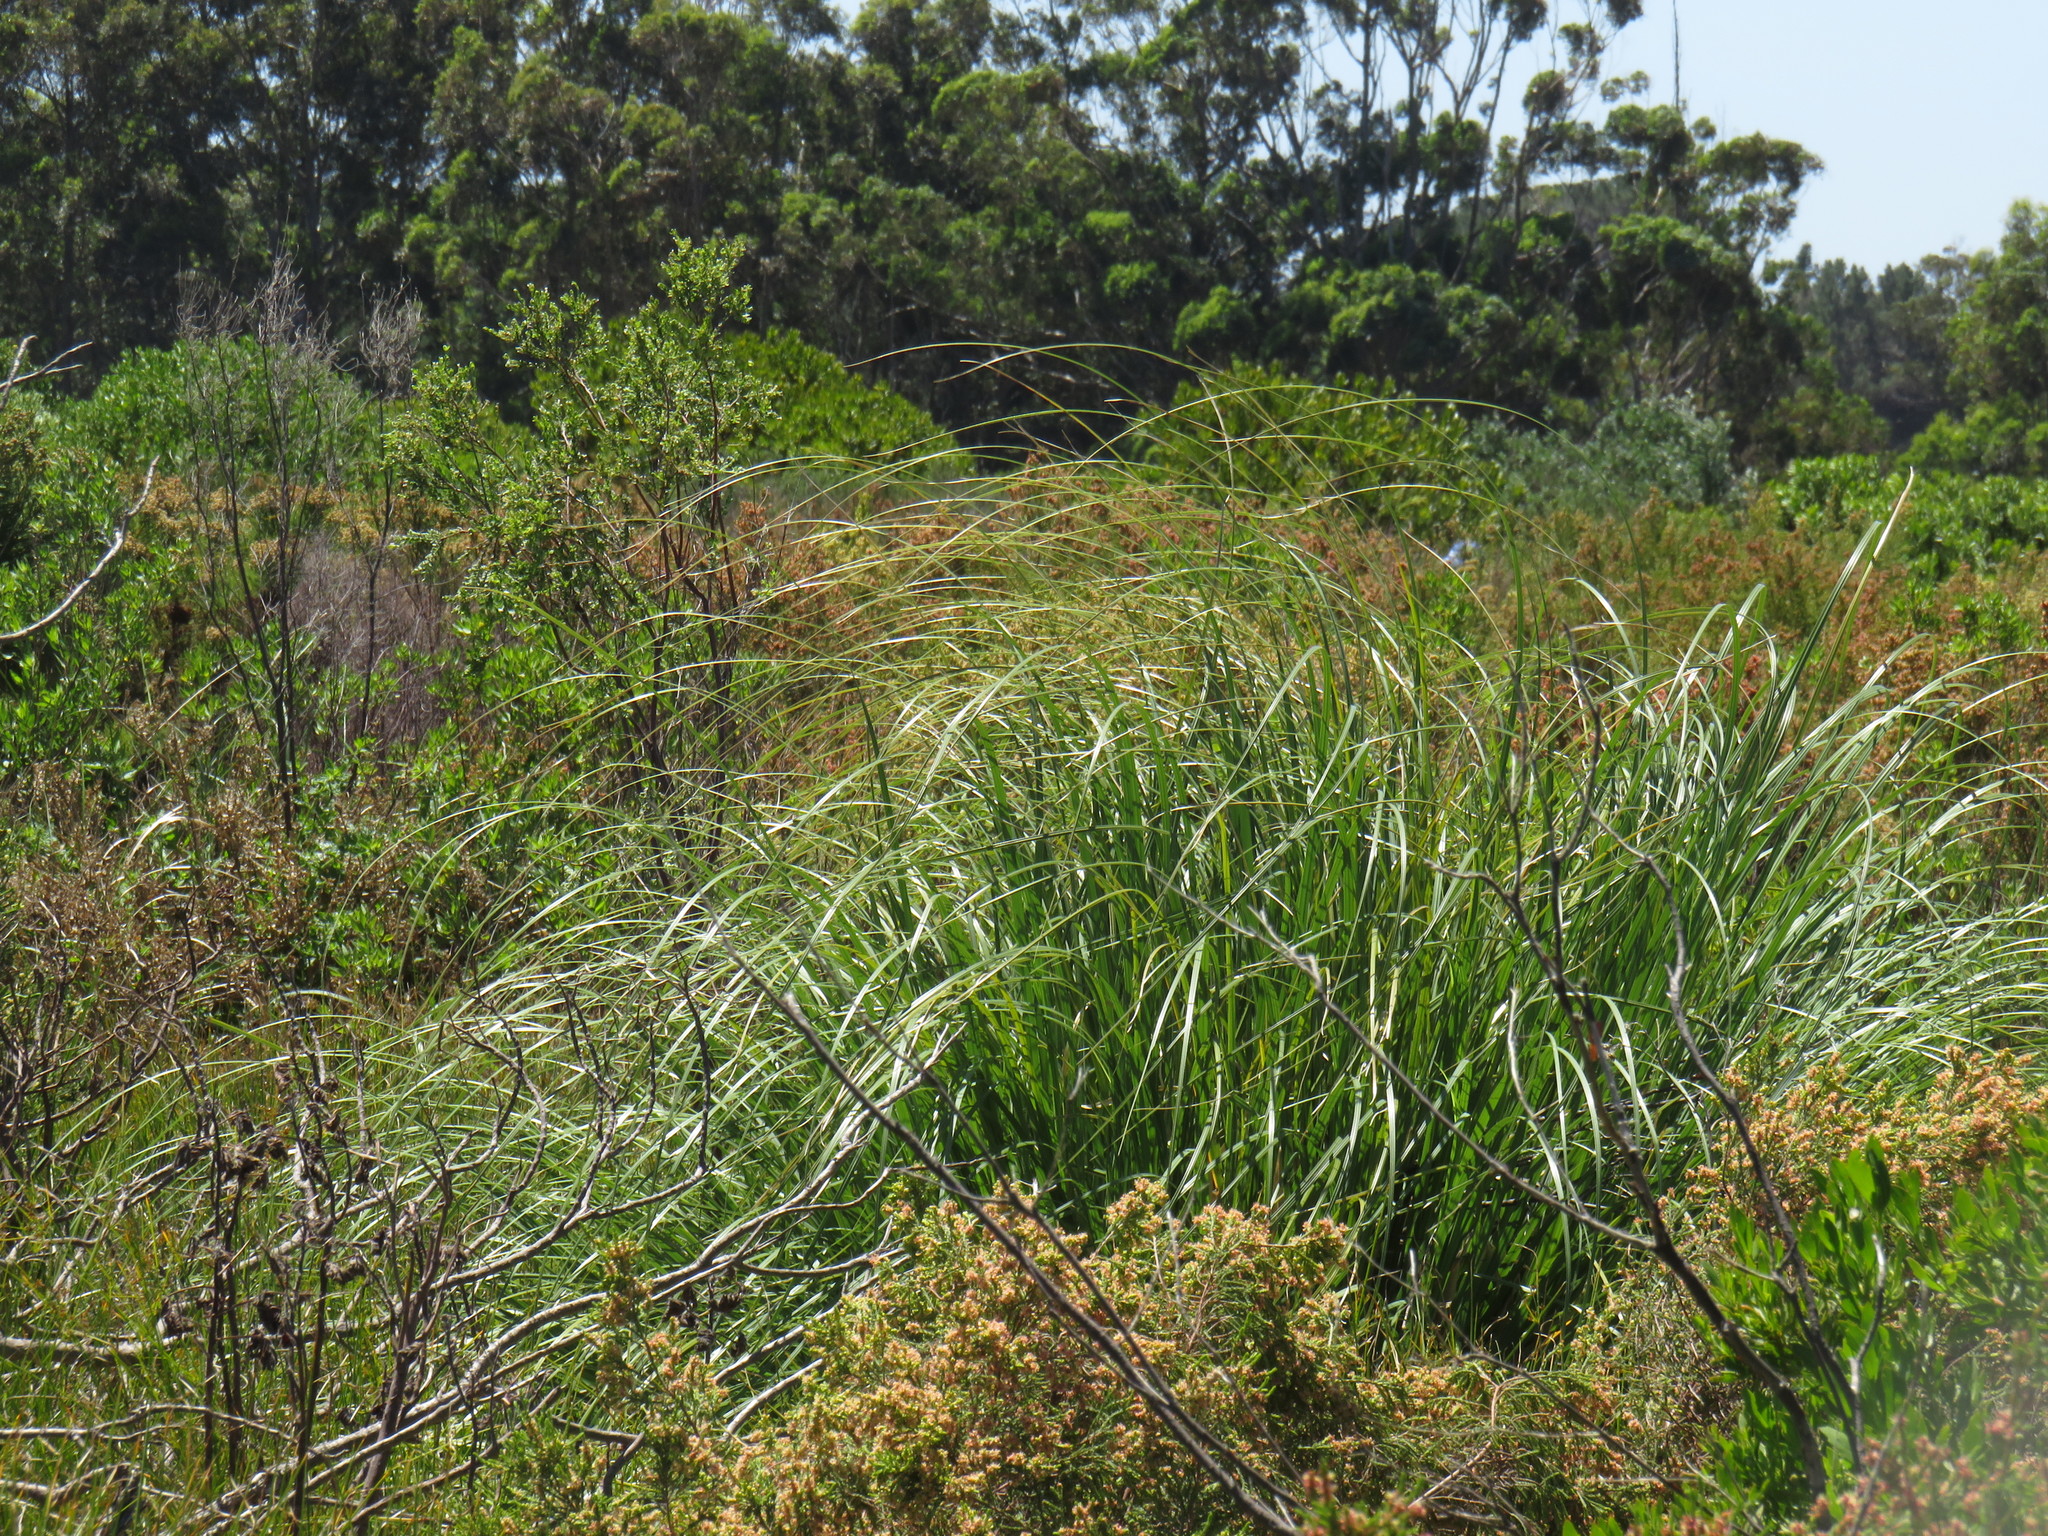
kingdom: Plantae
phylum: Tracheophyta
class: Liliopsida
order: Poales
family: Poaceae
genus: Cortaderia
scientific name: Cortaderia selloana
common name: Uruguayan pampas grass
